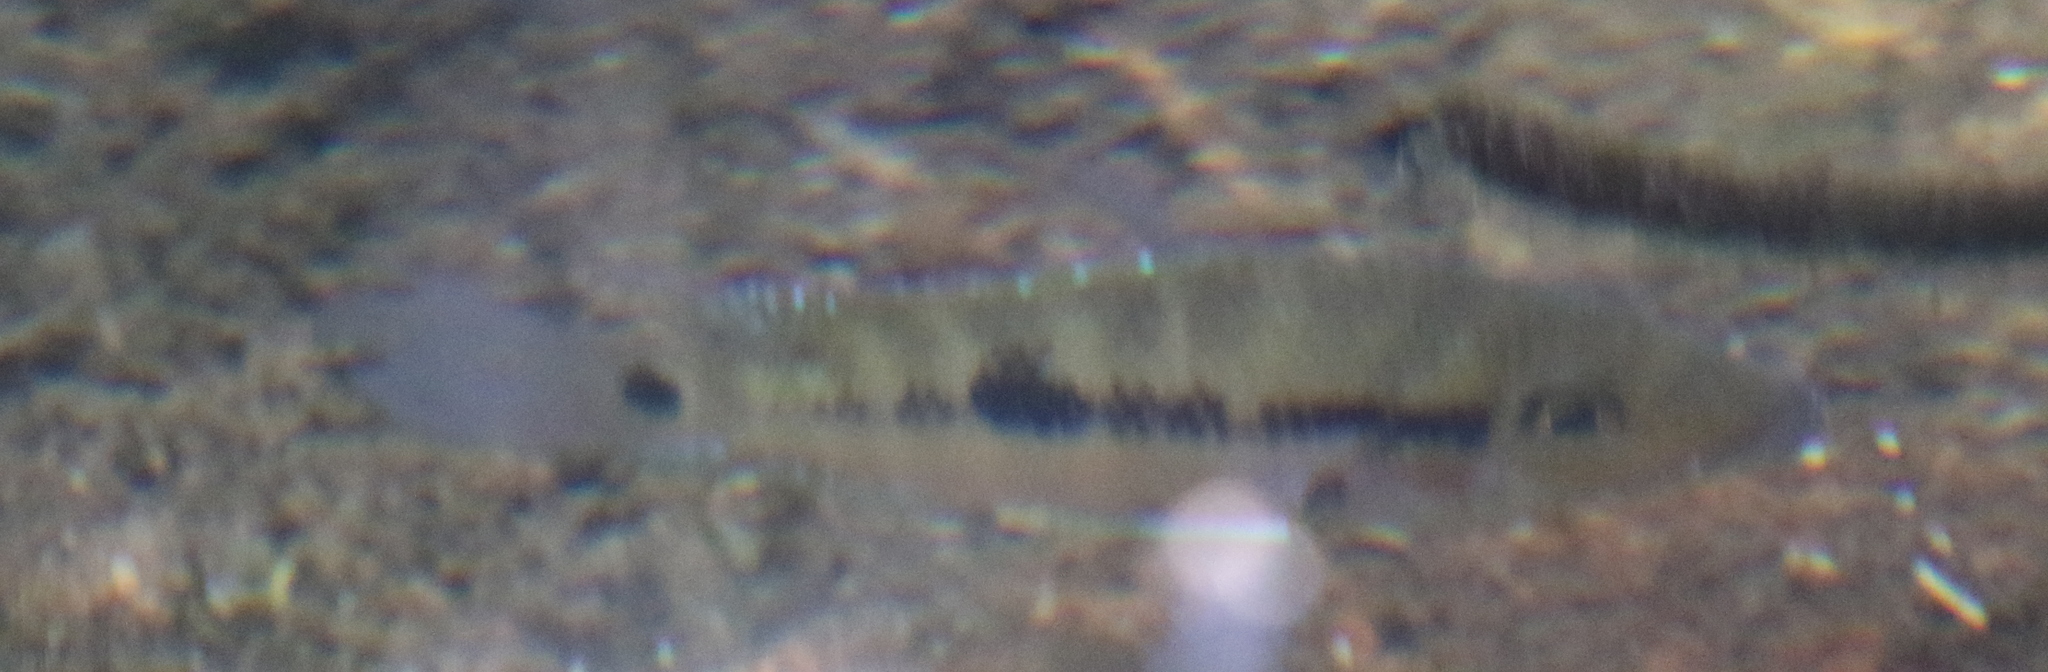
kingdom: Animalia
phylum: Chordata
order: Perciformes
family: Cichlidae
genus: Cribroheros
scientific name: Cribroheros robertsoni
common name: False firemouth cichlid
